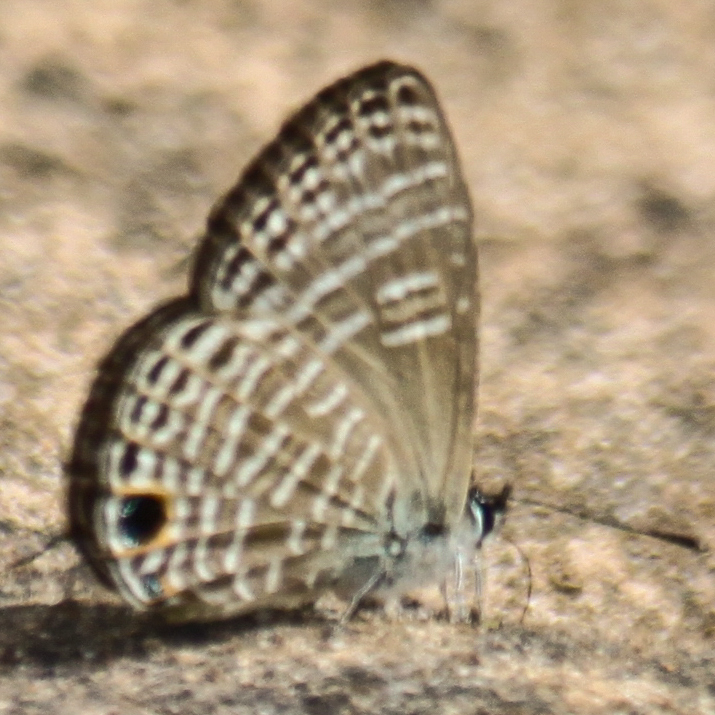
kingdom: Animalia
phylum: Arthropoda
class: Insecta
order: Lepidoptera
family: Lycaenidae
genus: Nacaduba
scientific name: Nacaduba pavana
